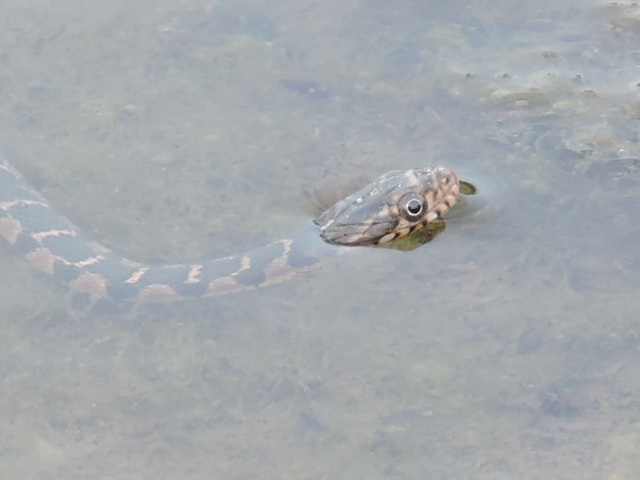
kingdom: Animalia
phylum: Chordata
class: Squamata
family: Colubridae
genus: Nerodia
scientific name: Nerodia erythrogaster
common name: Plainbelly water snake
